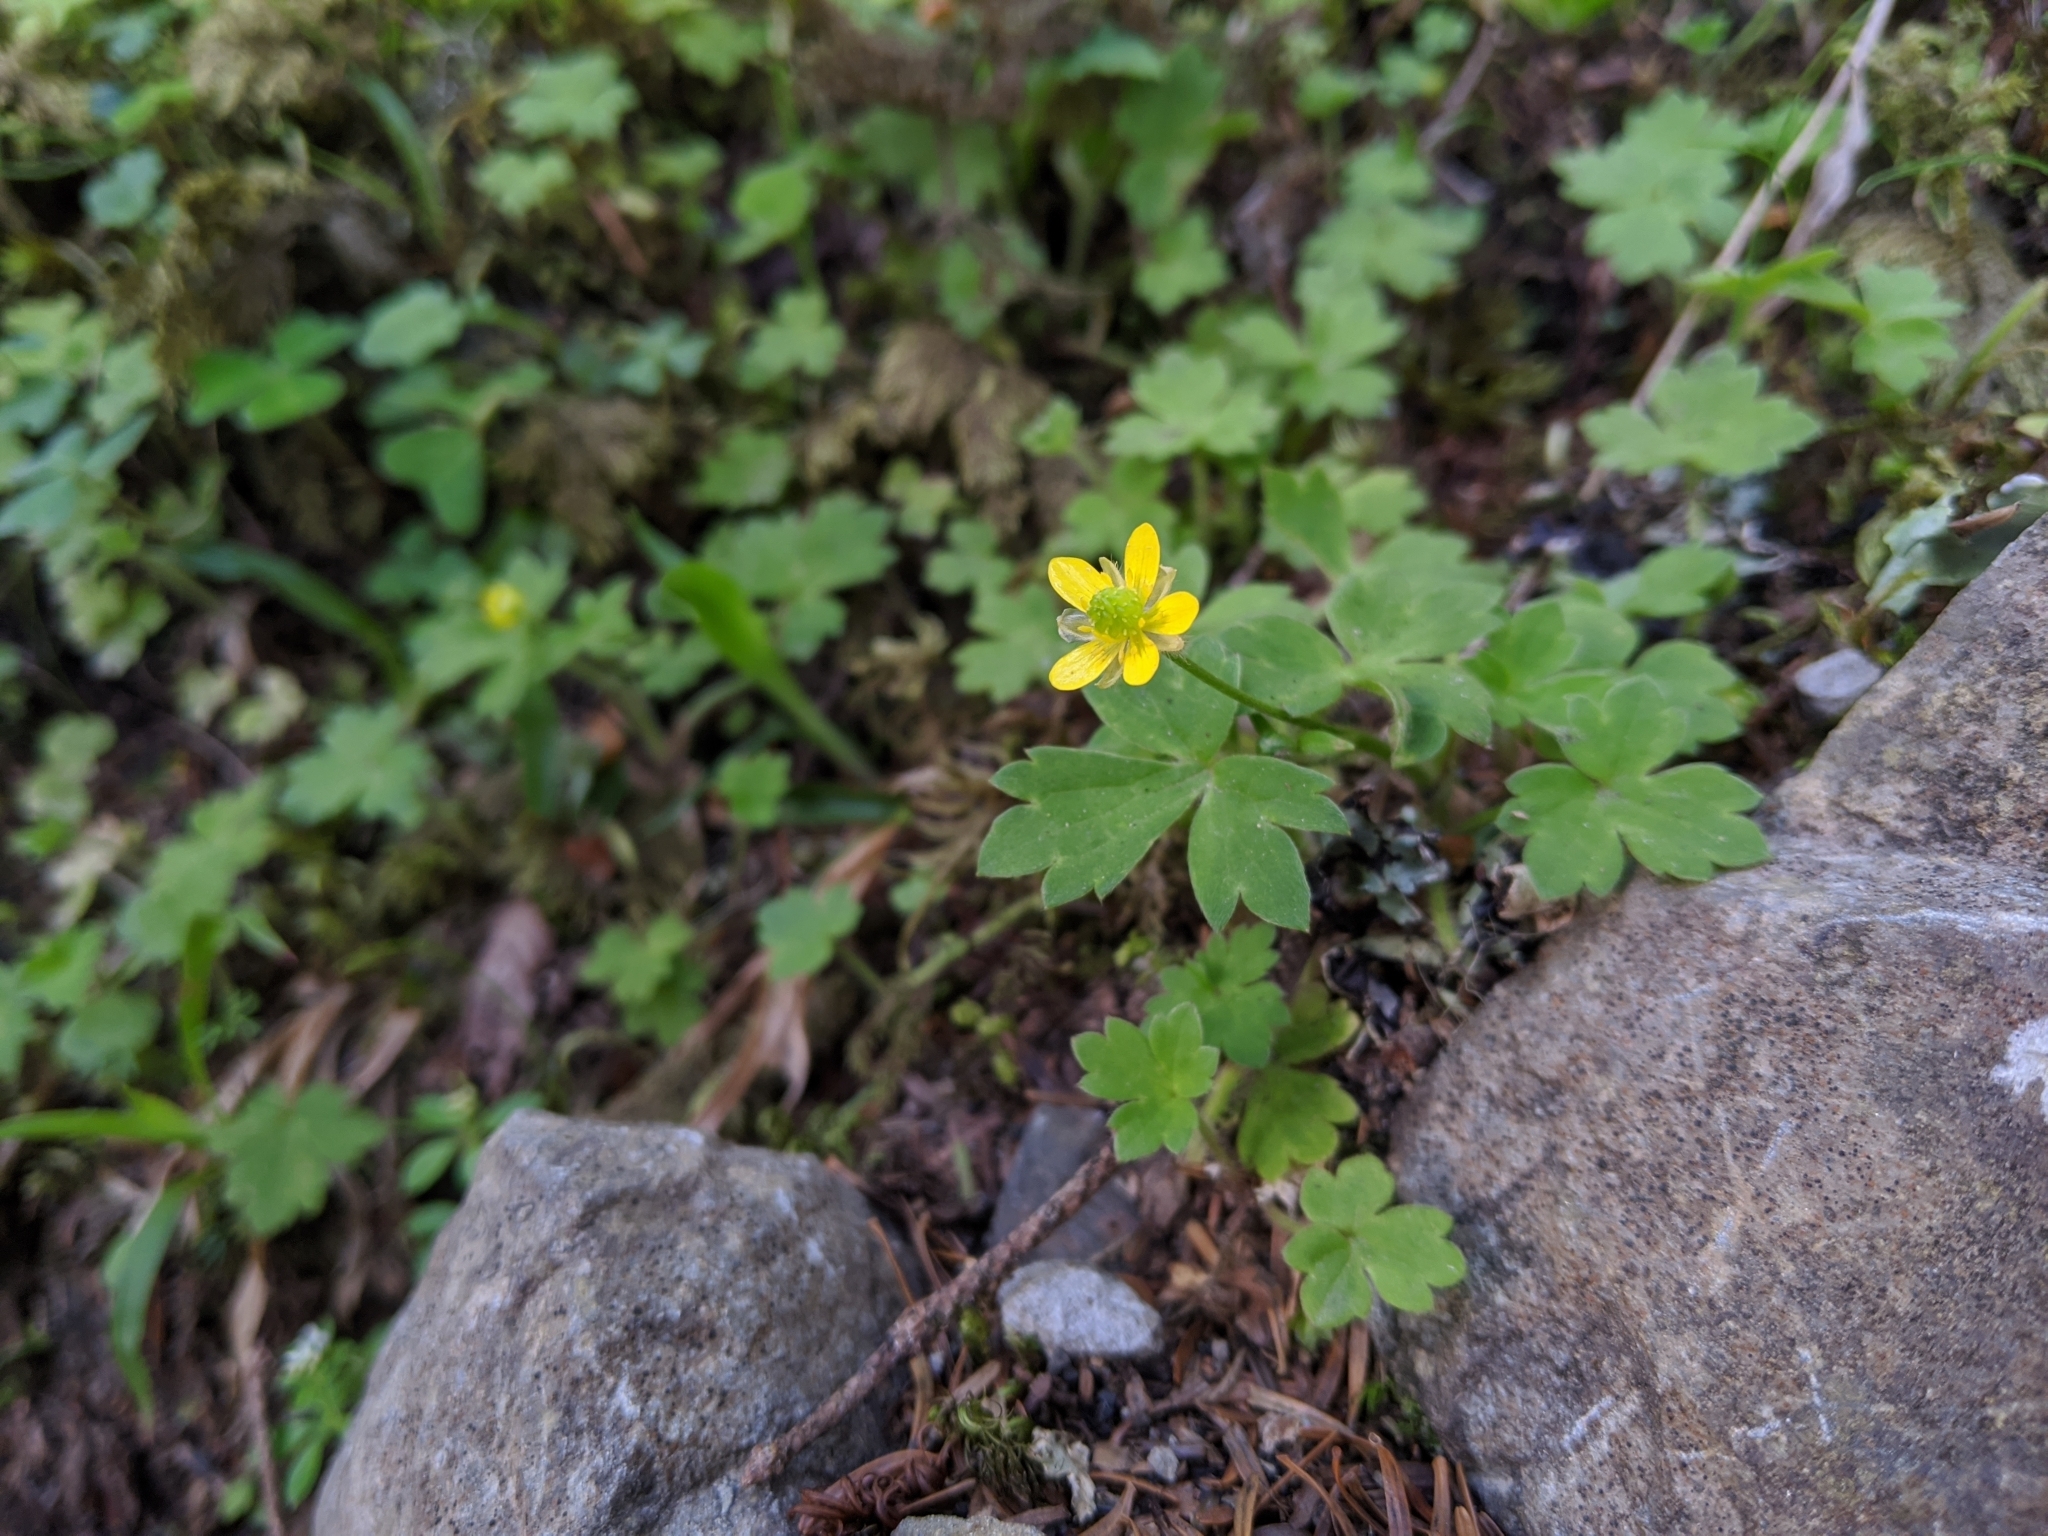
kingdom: Plantae
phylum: Tracheophyta
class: Magnoliopsida
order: Ranunculales
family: Ranunculaceae
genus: Ranunculus
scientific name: Ranunculus taisanensis
